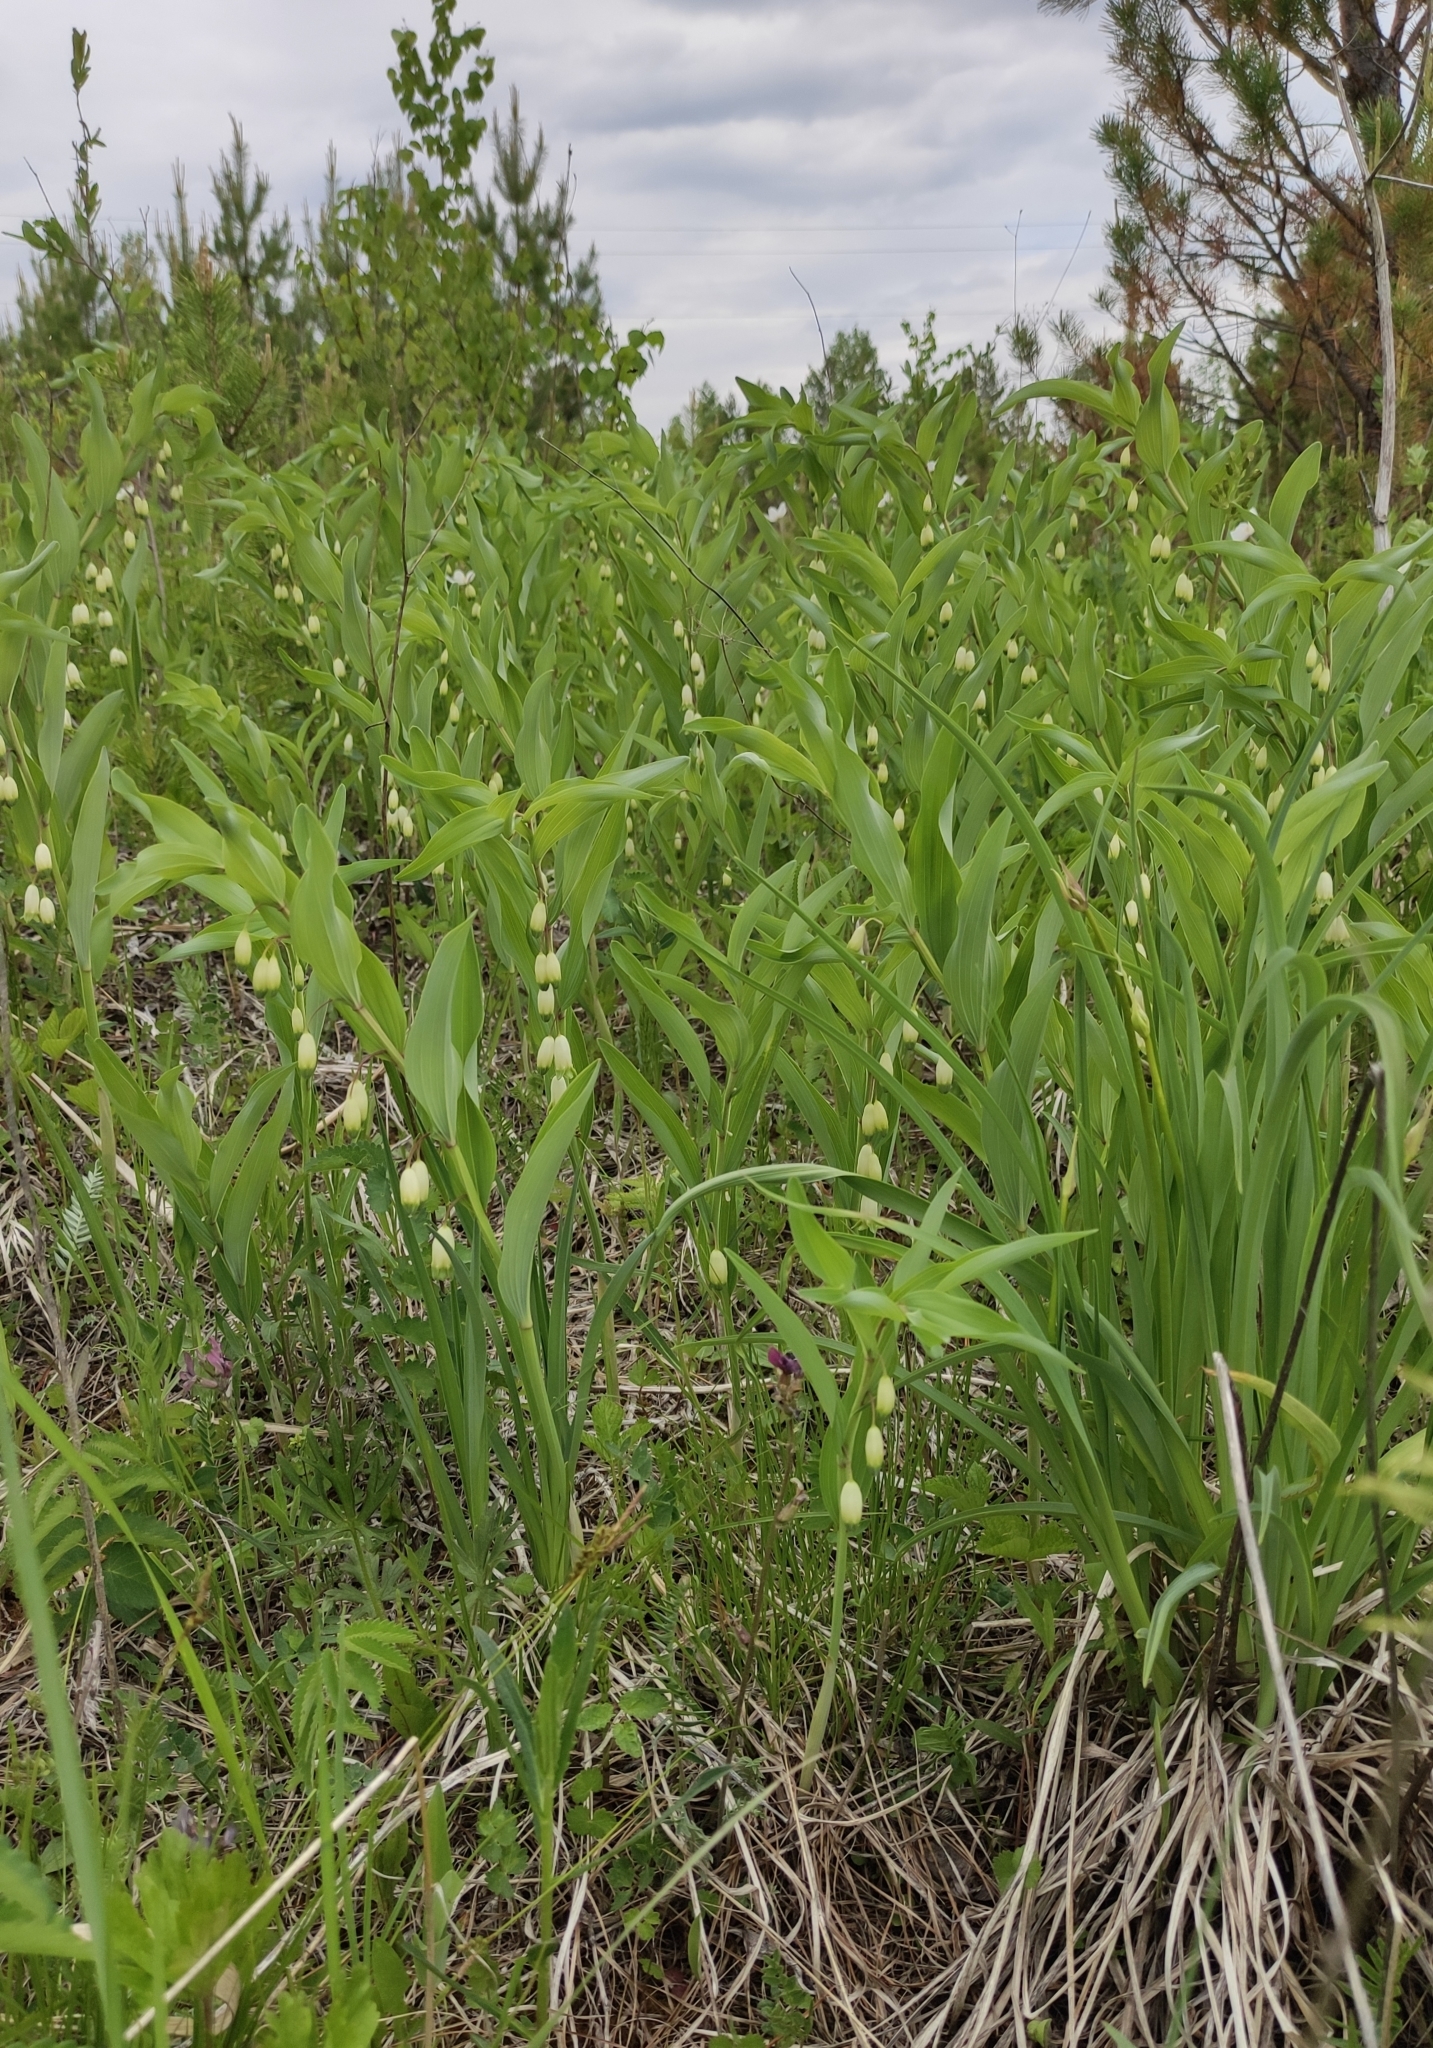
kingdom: Plantae
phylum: Tracheophyta
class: Liliopsida
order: Asparagales
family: Asparagaceae
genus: Polygonatum
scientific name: Polygonatum odoratum
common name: Angular solomon's-seal
